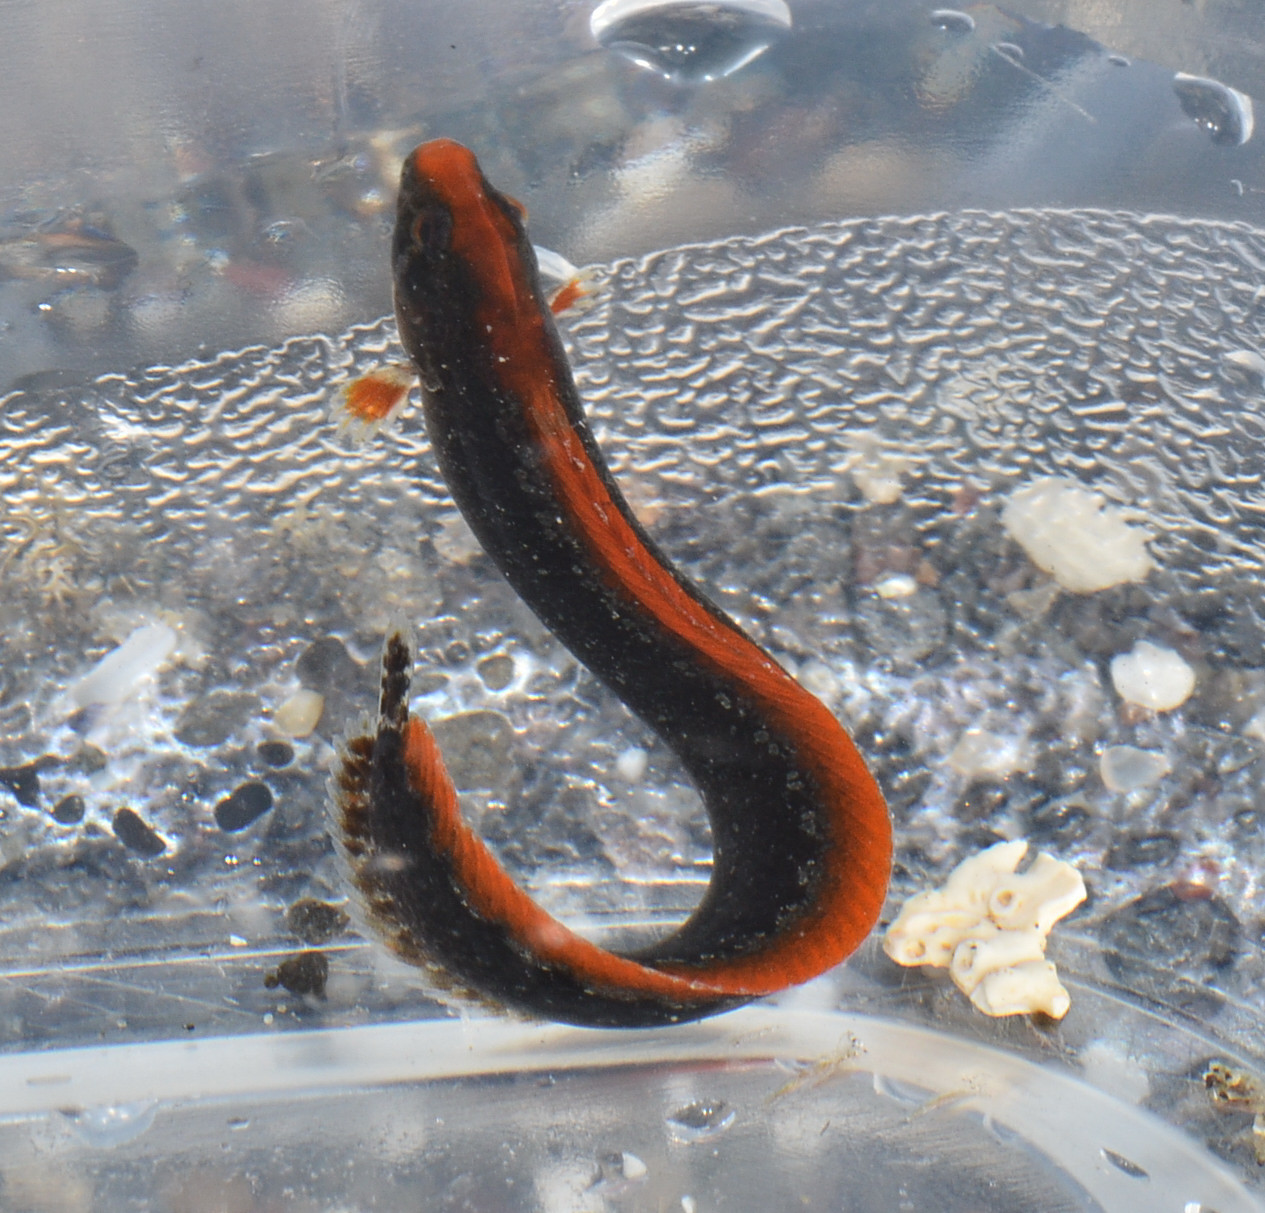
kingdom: Animalia
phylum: Chordata
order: Perciformes
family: Stichaeidae
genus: Anoplarchus
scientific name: Anoplarchus purpurescens
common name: High cockscomb
